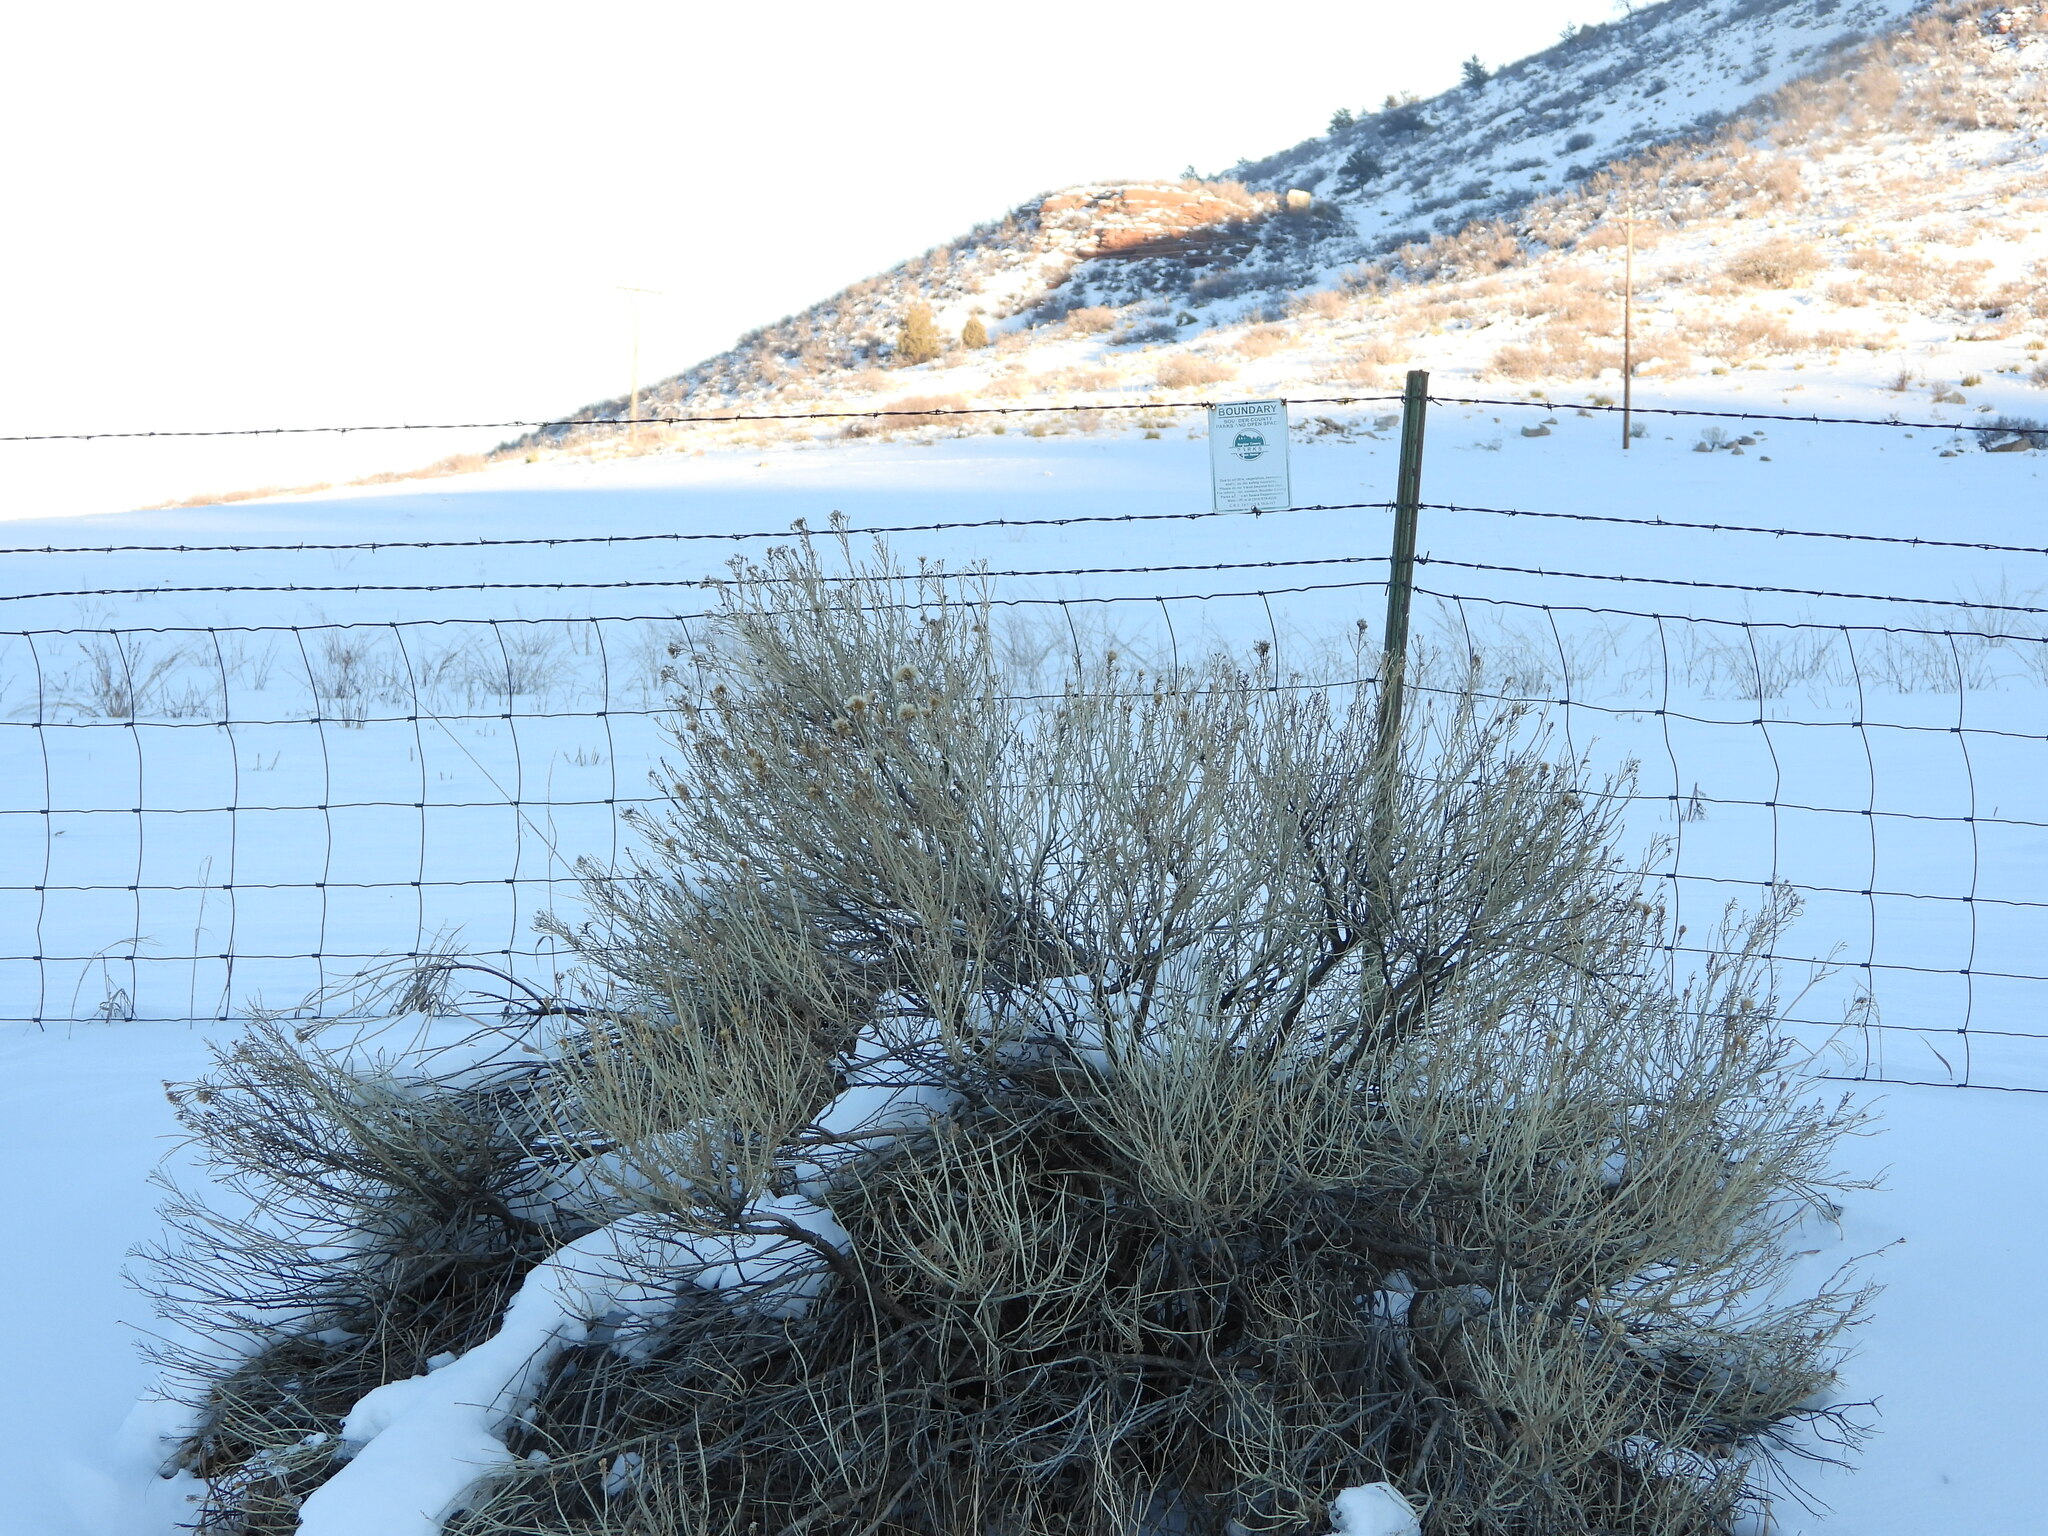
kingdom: Plantae
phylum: Tracheophyta
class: Magnoliopsida
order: Asterales
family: Asteraceae
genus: Ericameria
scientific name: Ericameria nauseosa
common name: Rubber rabbitbrush
